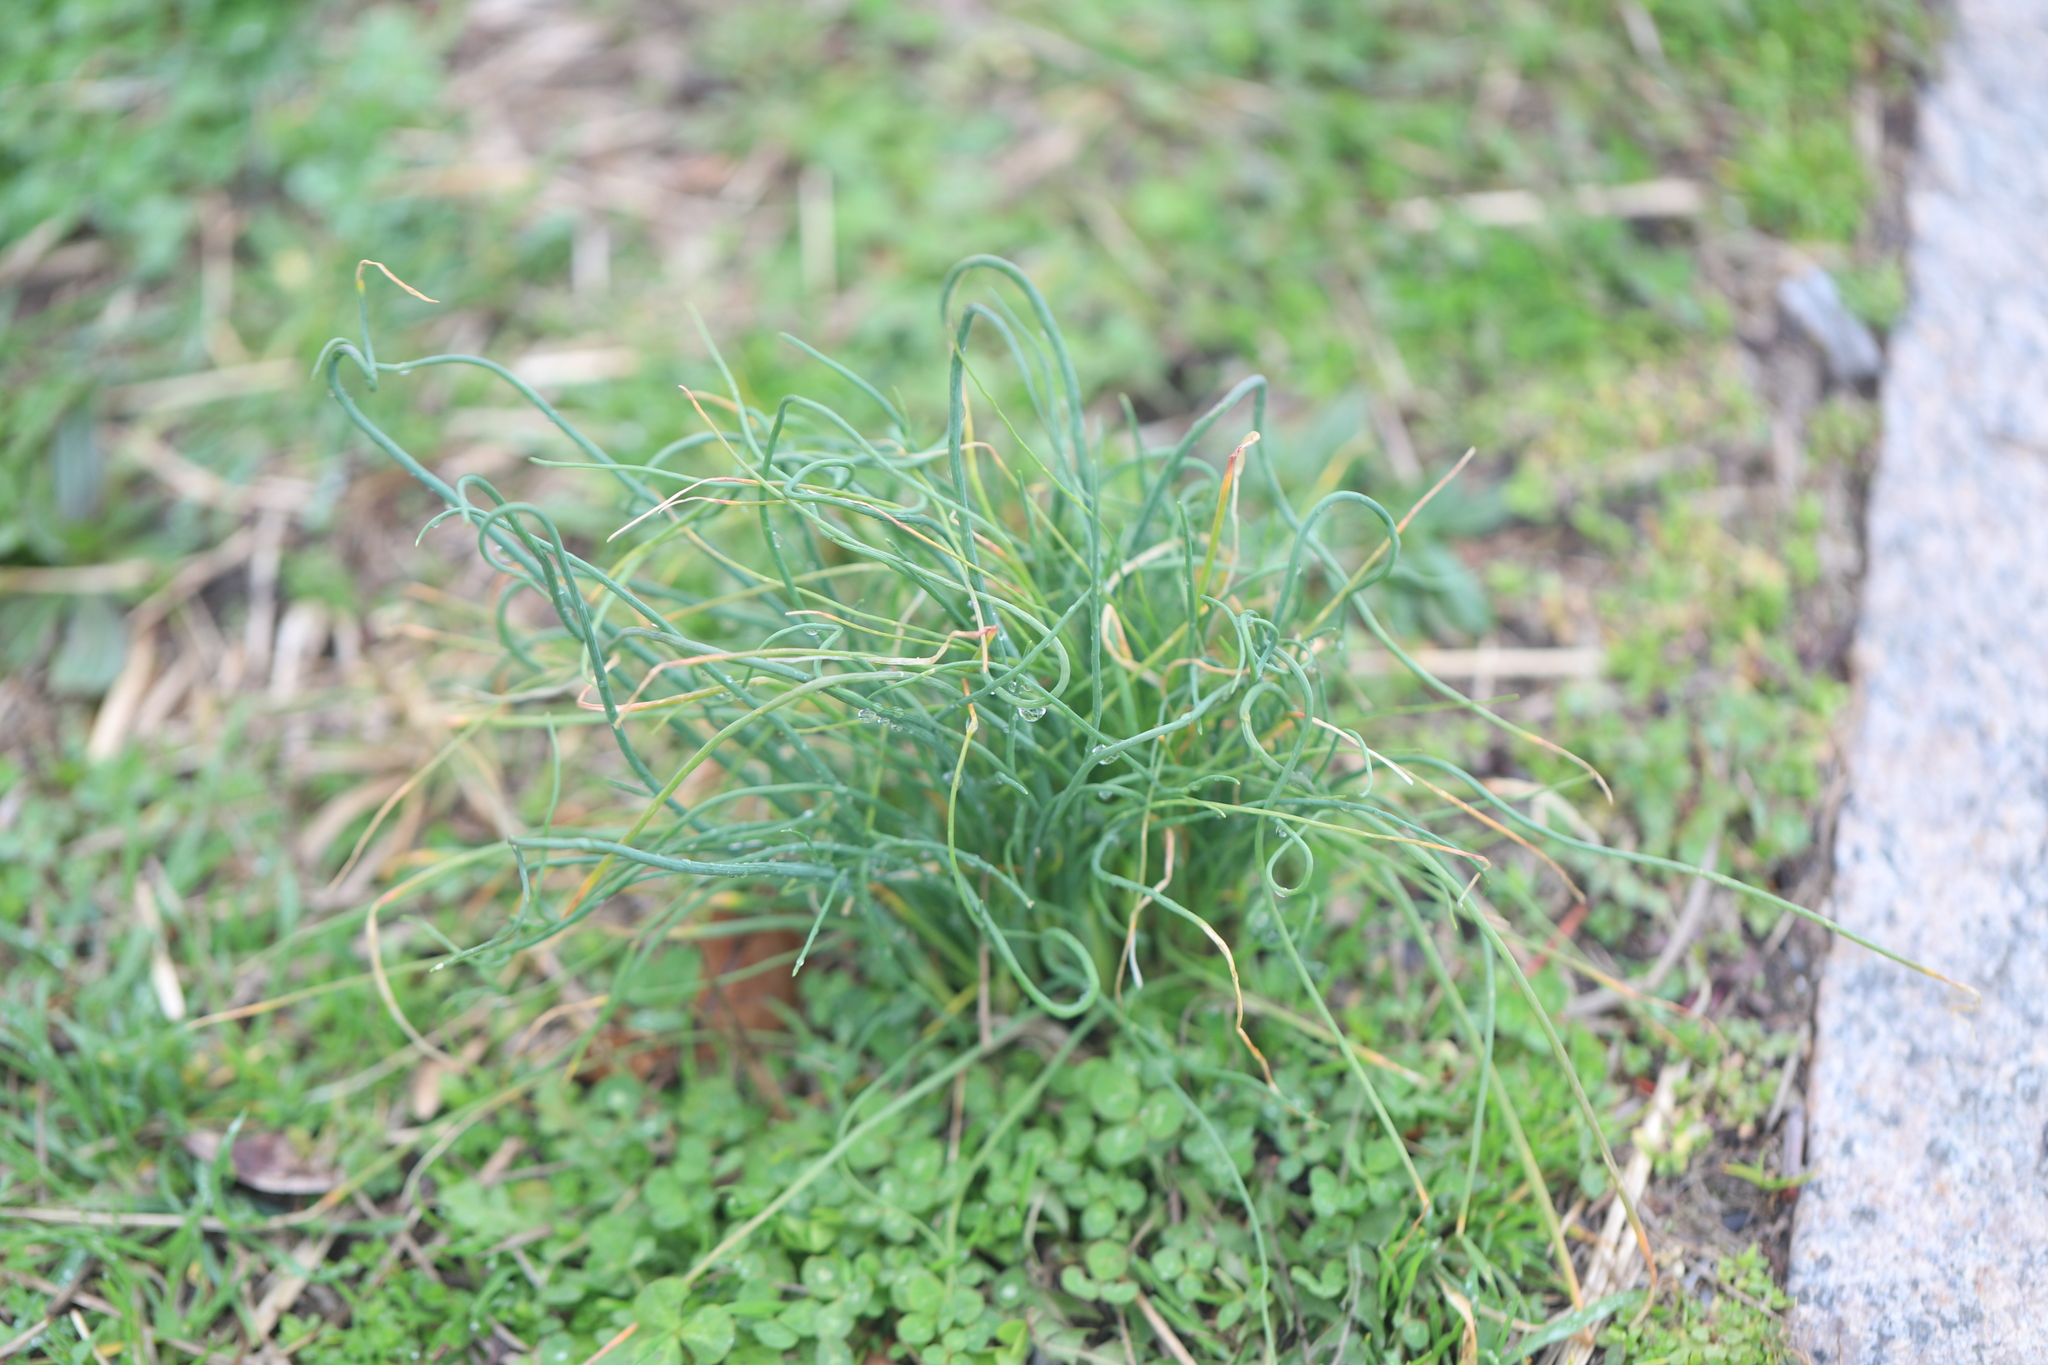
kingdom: Plantae
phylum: Tracheophyta
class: Liliopsida
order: Asparagales
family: Amaryllidaceae
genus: Allium
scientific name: Allium vineale
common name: Crow garlic
